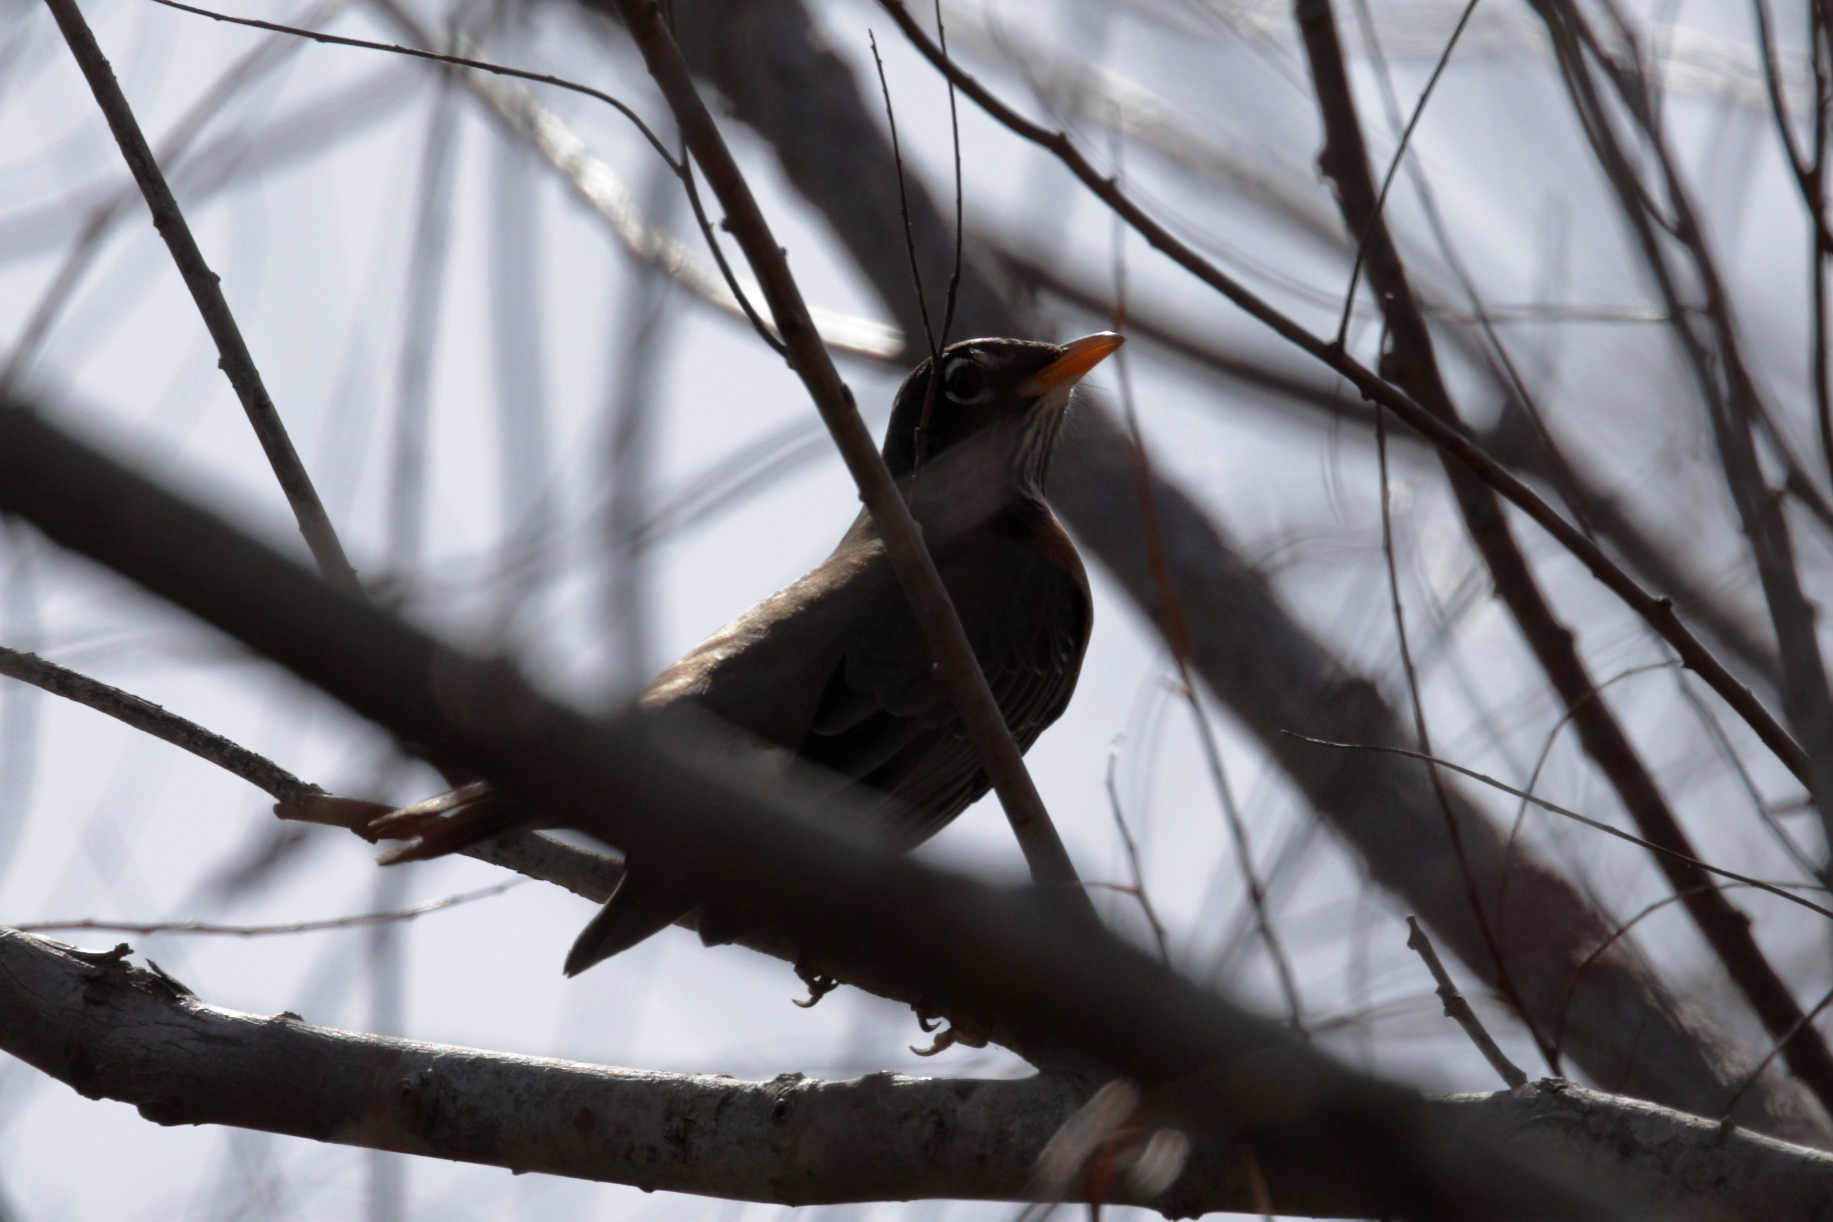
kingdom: Animalia
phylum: Chordata
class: Aves
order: Passeriformes
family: Turdidae
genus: Turdus
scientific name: Turdus migratorius
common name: American robin
